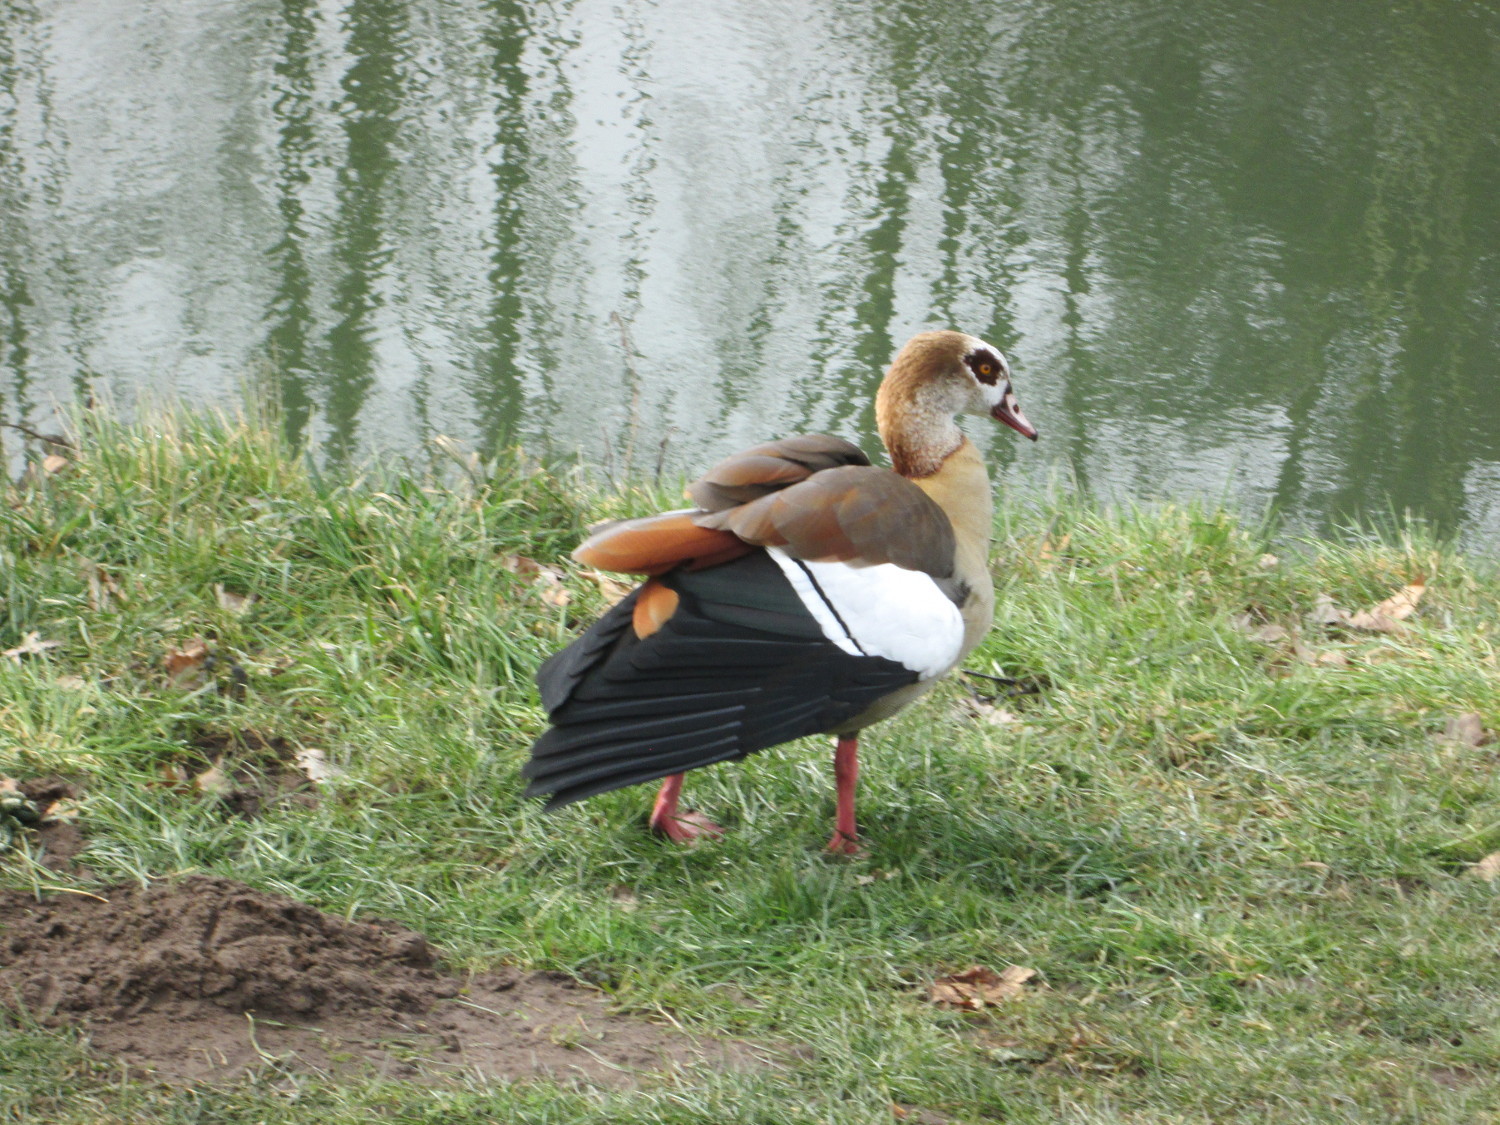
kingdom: Animalia
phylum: Chordata
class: Aves
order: Anseriformes
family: Anatidae
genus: Alopochen
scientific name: Alopochen aegyptiaca
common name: Egyptian goose
